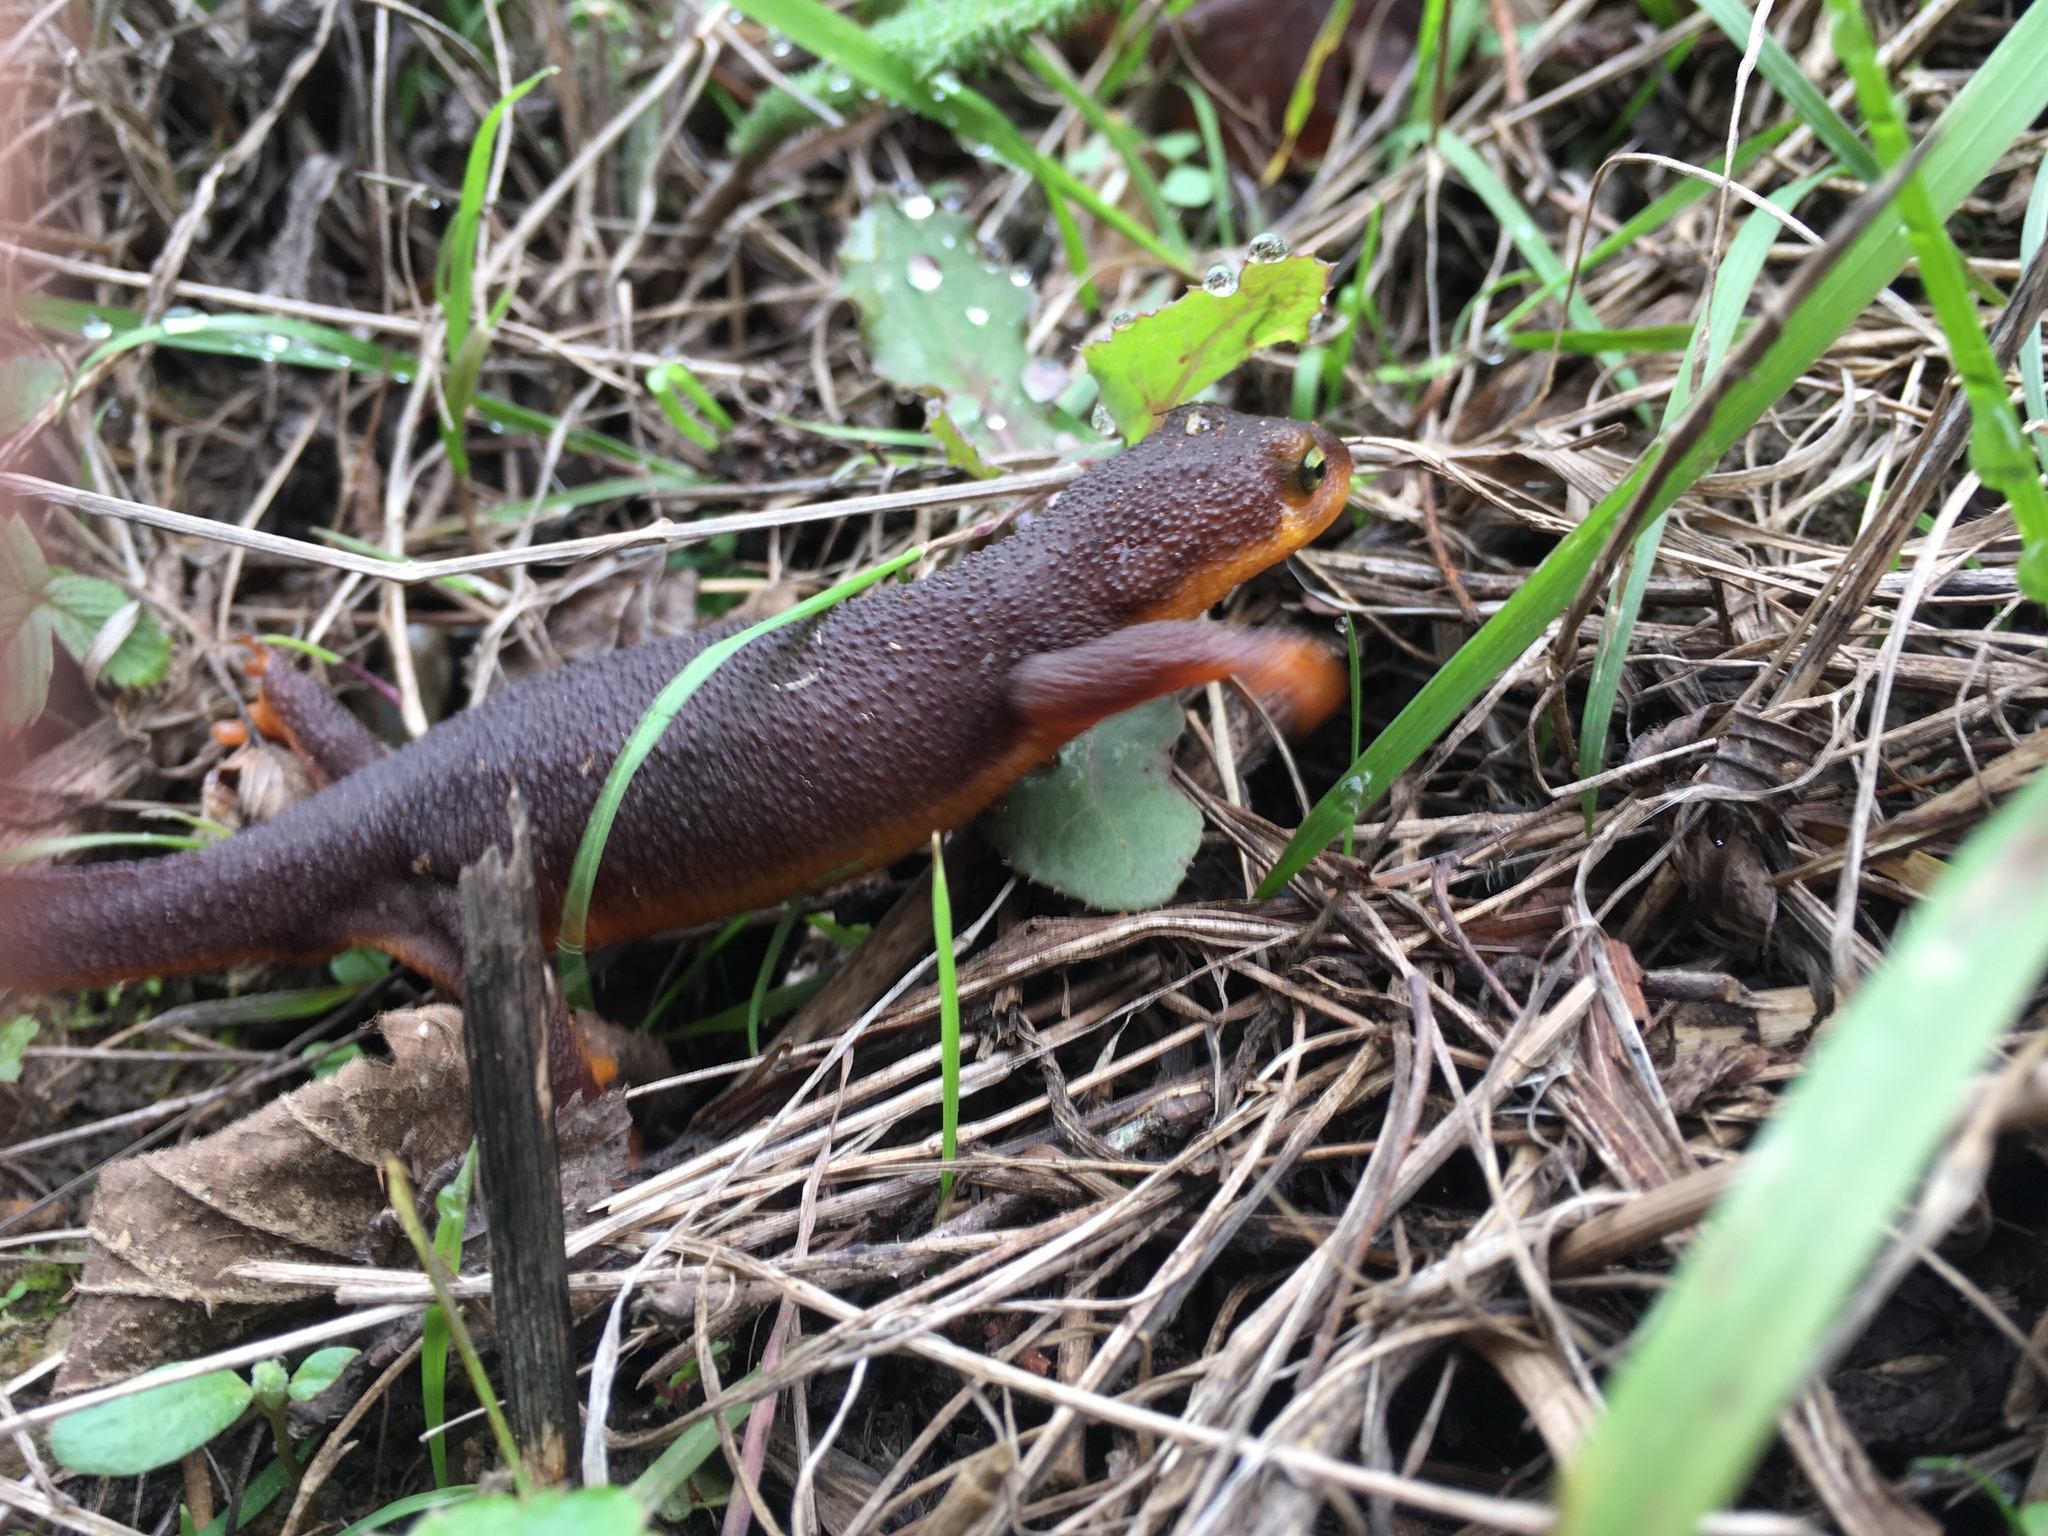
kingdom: Animalia
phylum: Chordata
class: Amphibia
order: Caudata
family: Salamandridae
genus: Taricha
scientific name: Taricha torosa
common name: California newt
